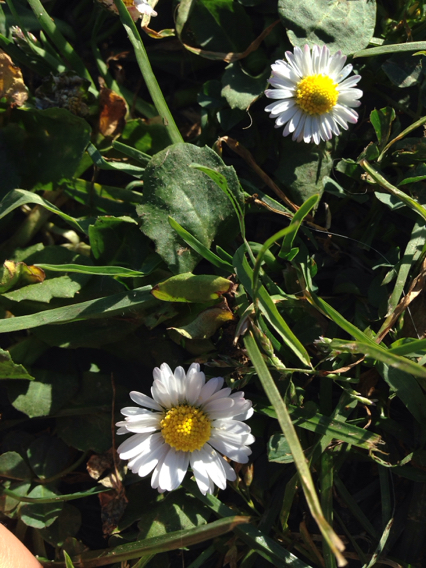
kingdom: Plantae
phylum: Tracheophyta
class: Magnoliopsida
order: Asterales
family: Asteraceae
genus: Bellis
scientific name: Bellis perennis
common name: Lawndaisy
